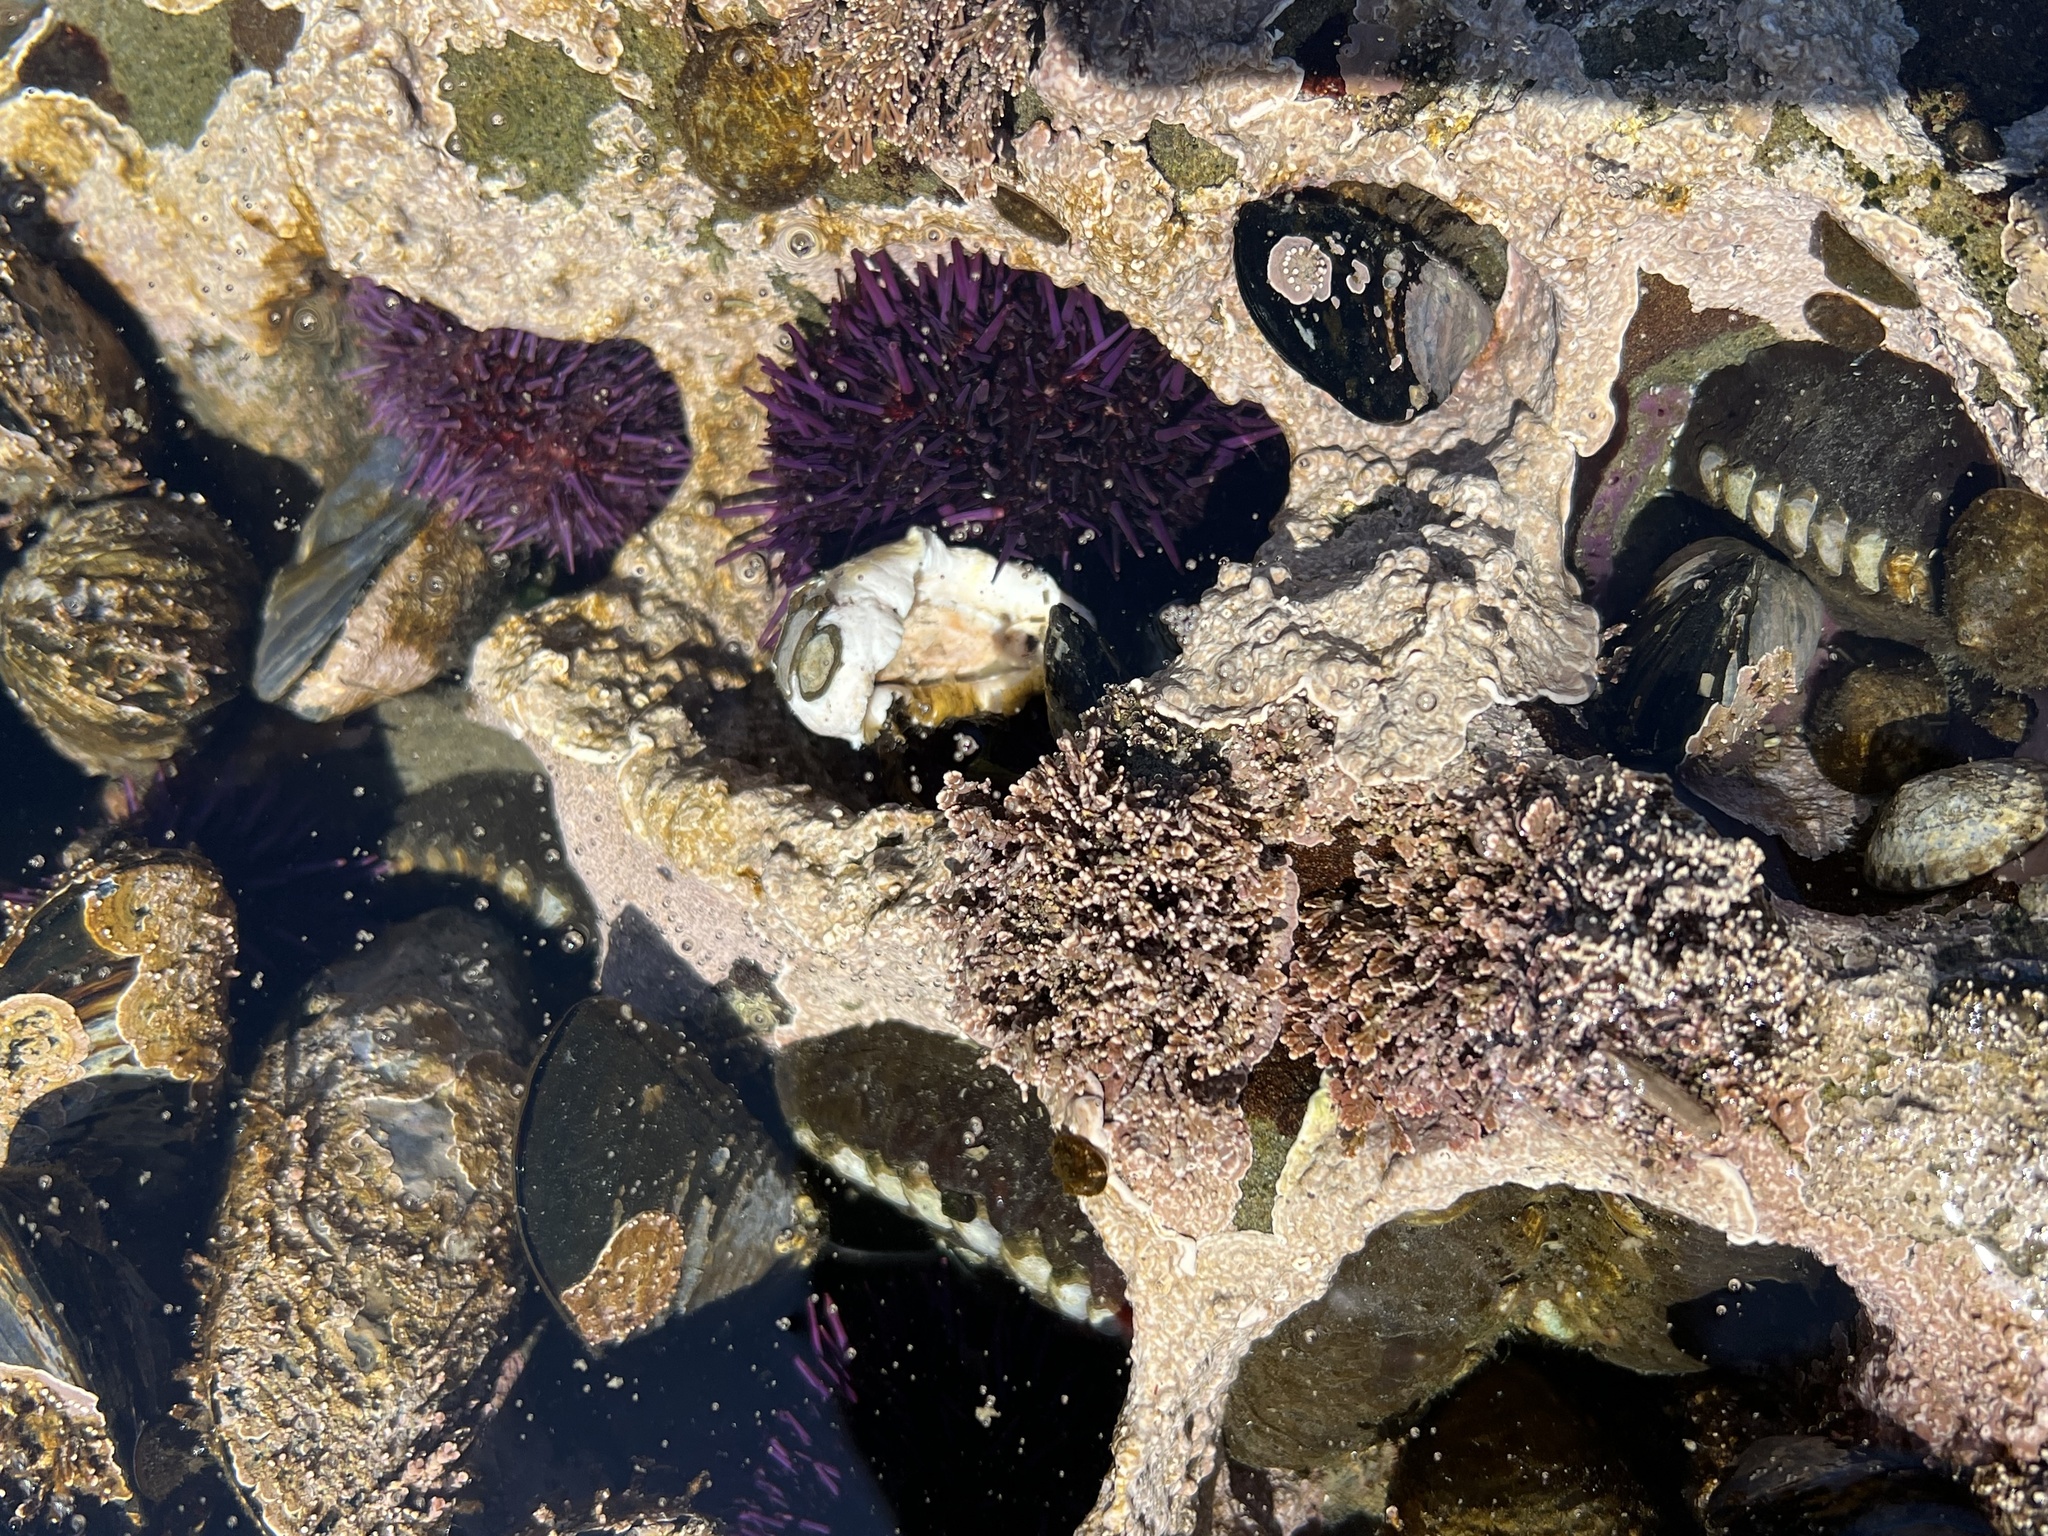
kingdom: Animalia
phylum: Echinodermata
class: Echinoidea
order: Camarodonta
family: Strongylocentrotidae
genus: Strongylocentrotus
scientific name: Strongylocentrotus purpuratus
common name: Purple sea urchin
